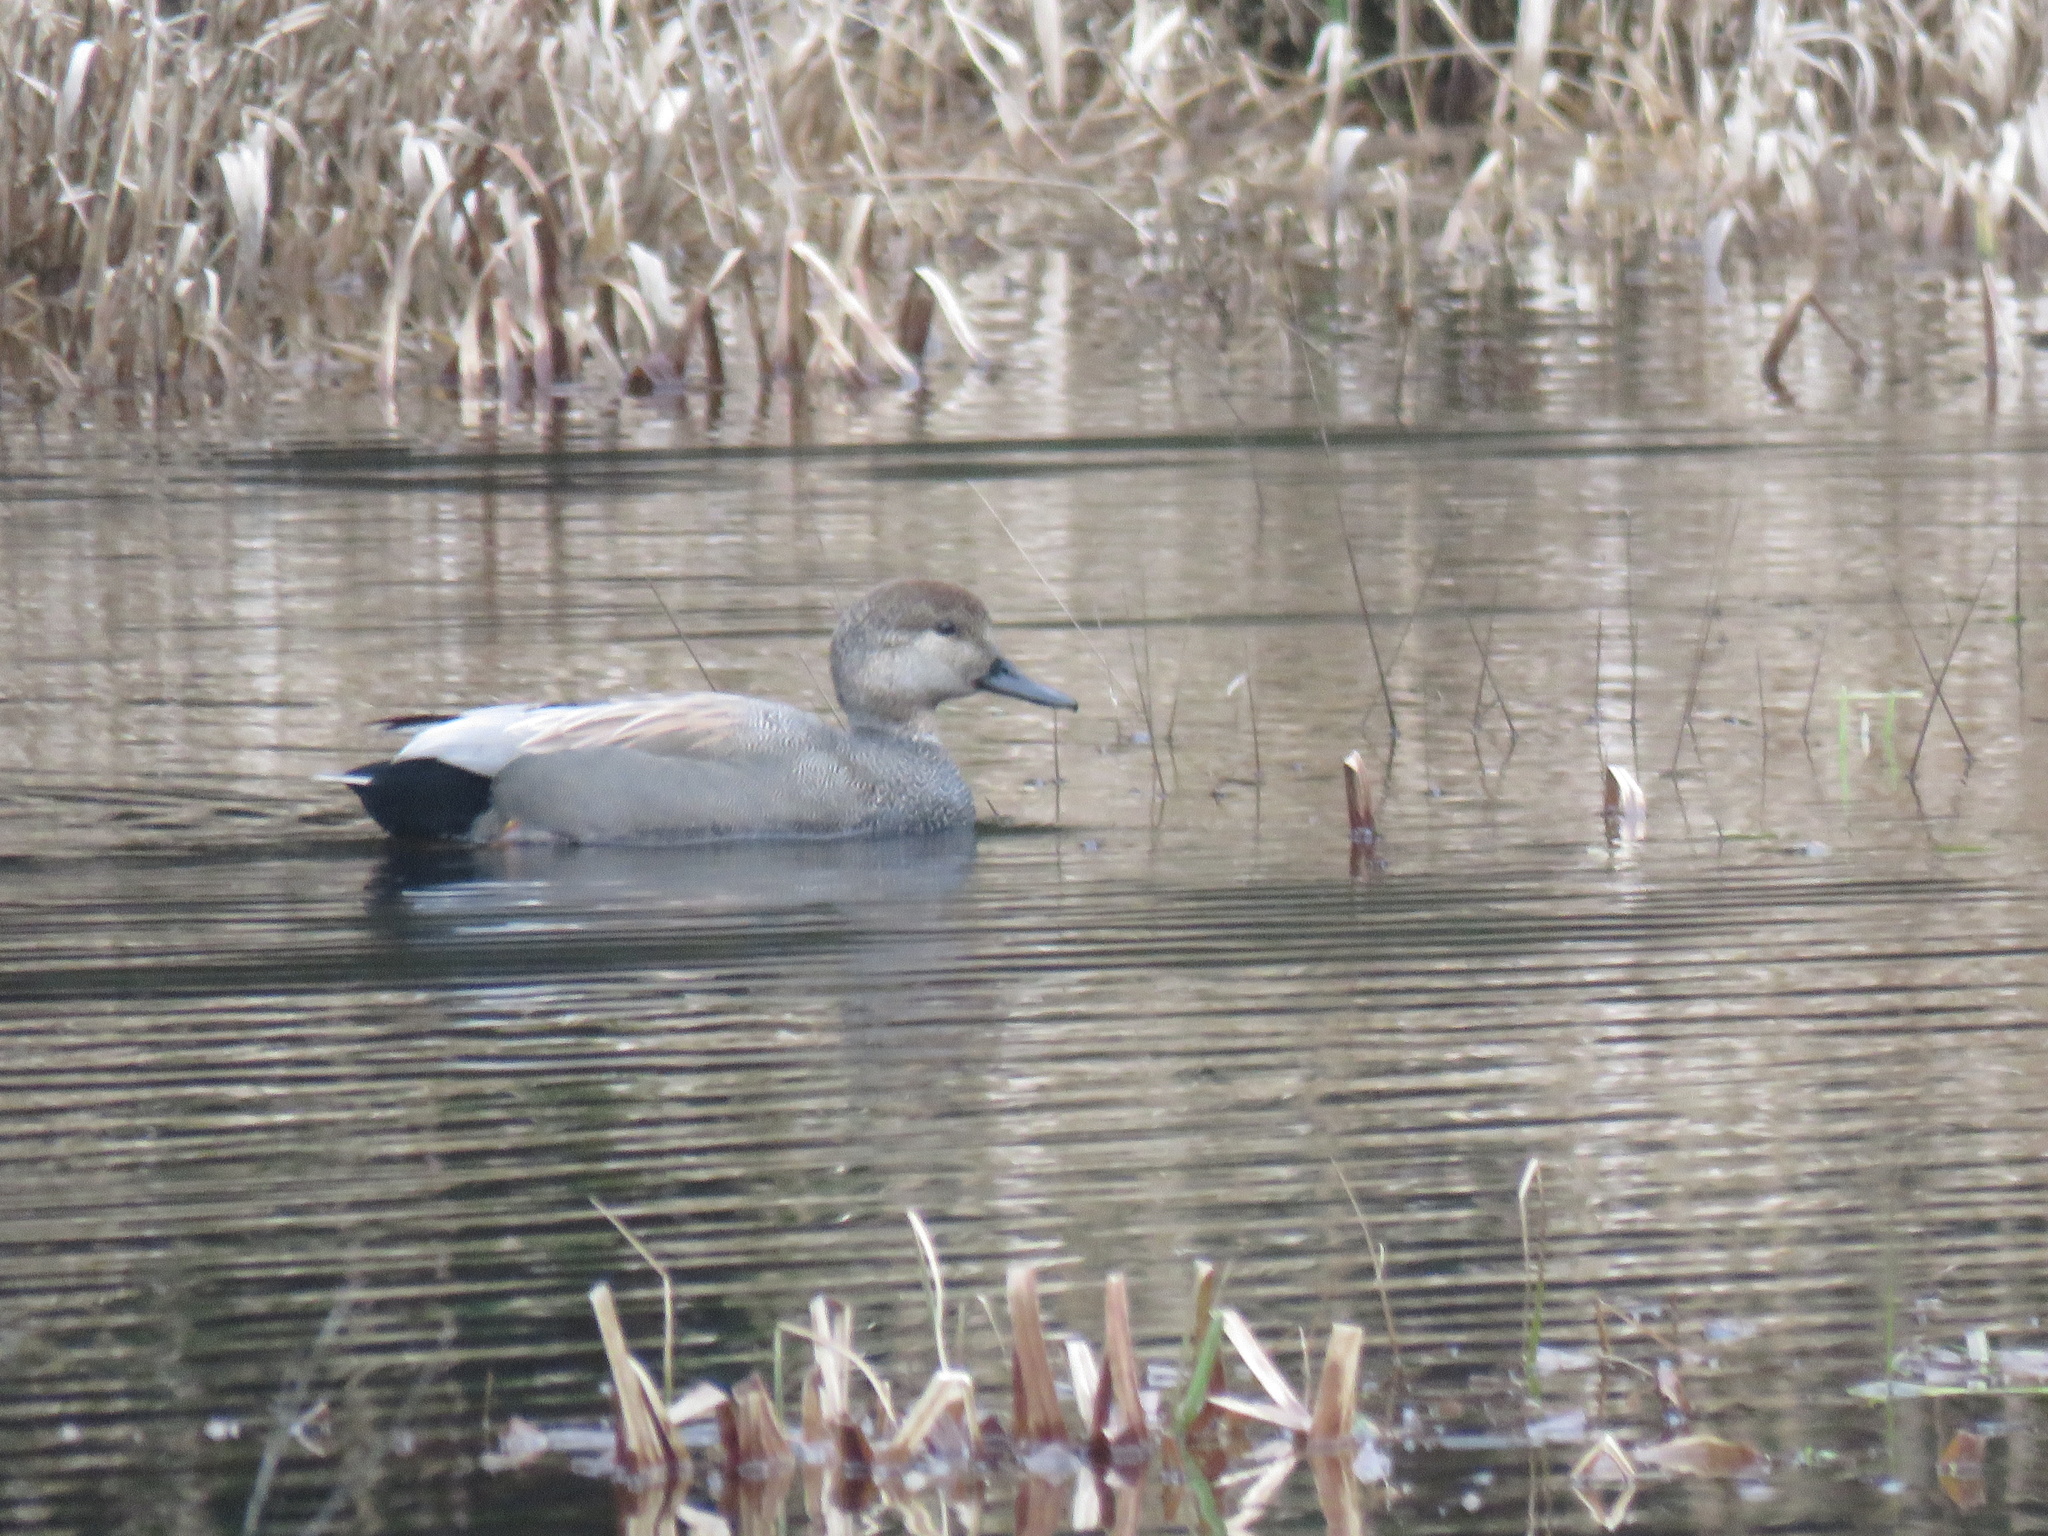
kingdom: Animalia
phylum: Chordata
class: Aves
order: Anseriformes
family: Anatidae
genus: Mareca
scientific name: Mareca strepera
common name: Gadwall
